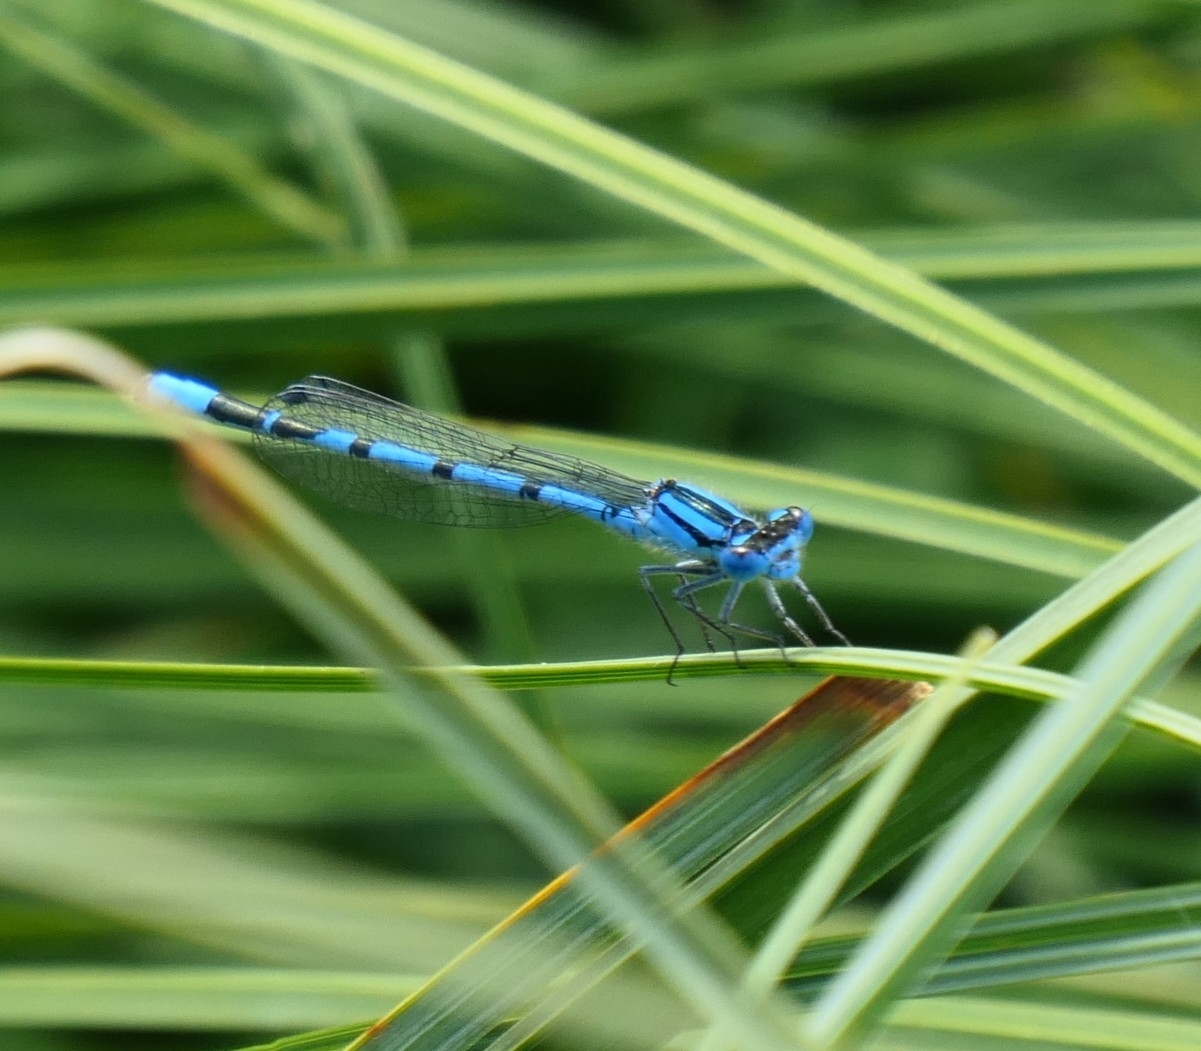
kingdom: Animalia
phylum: Arthropoda
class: Insecta
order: Odonata
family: Coenagrionidae
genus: Enallagma
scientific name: Enallagma cyathigerum
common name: Common blue damselfly
